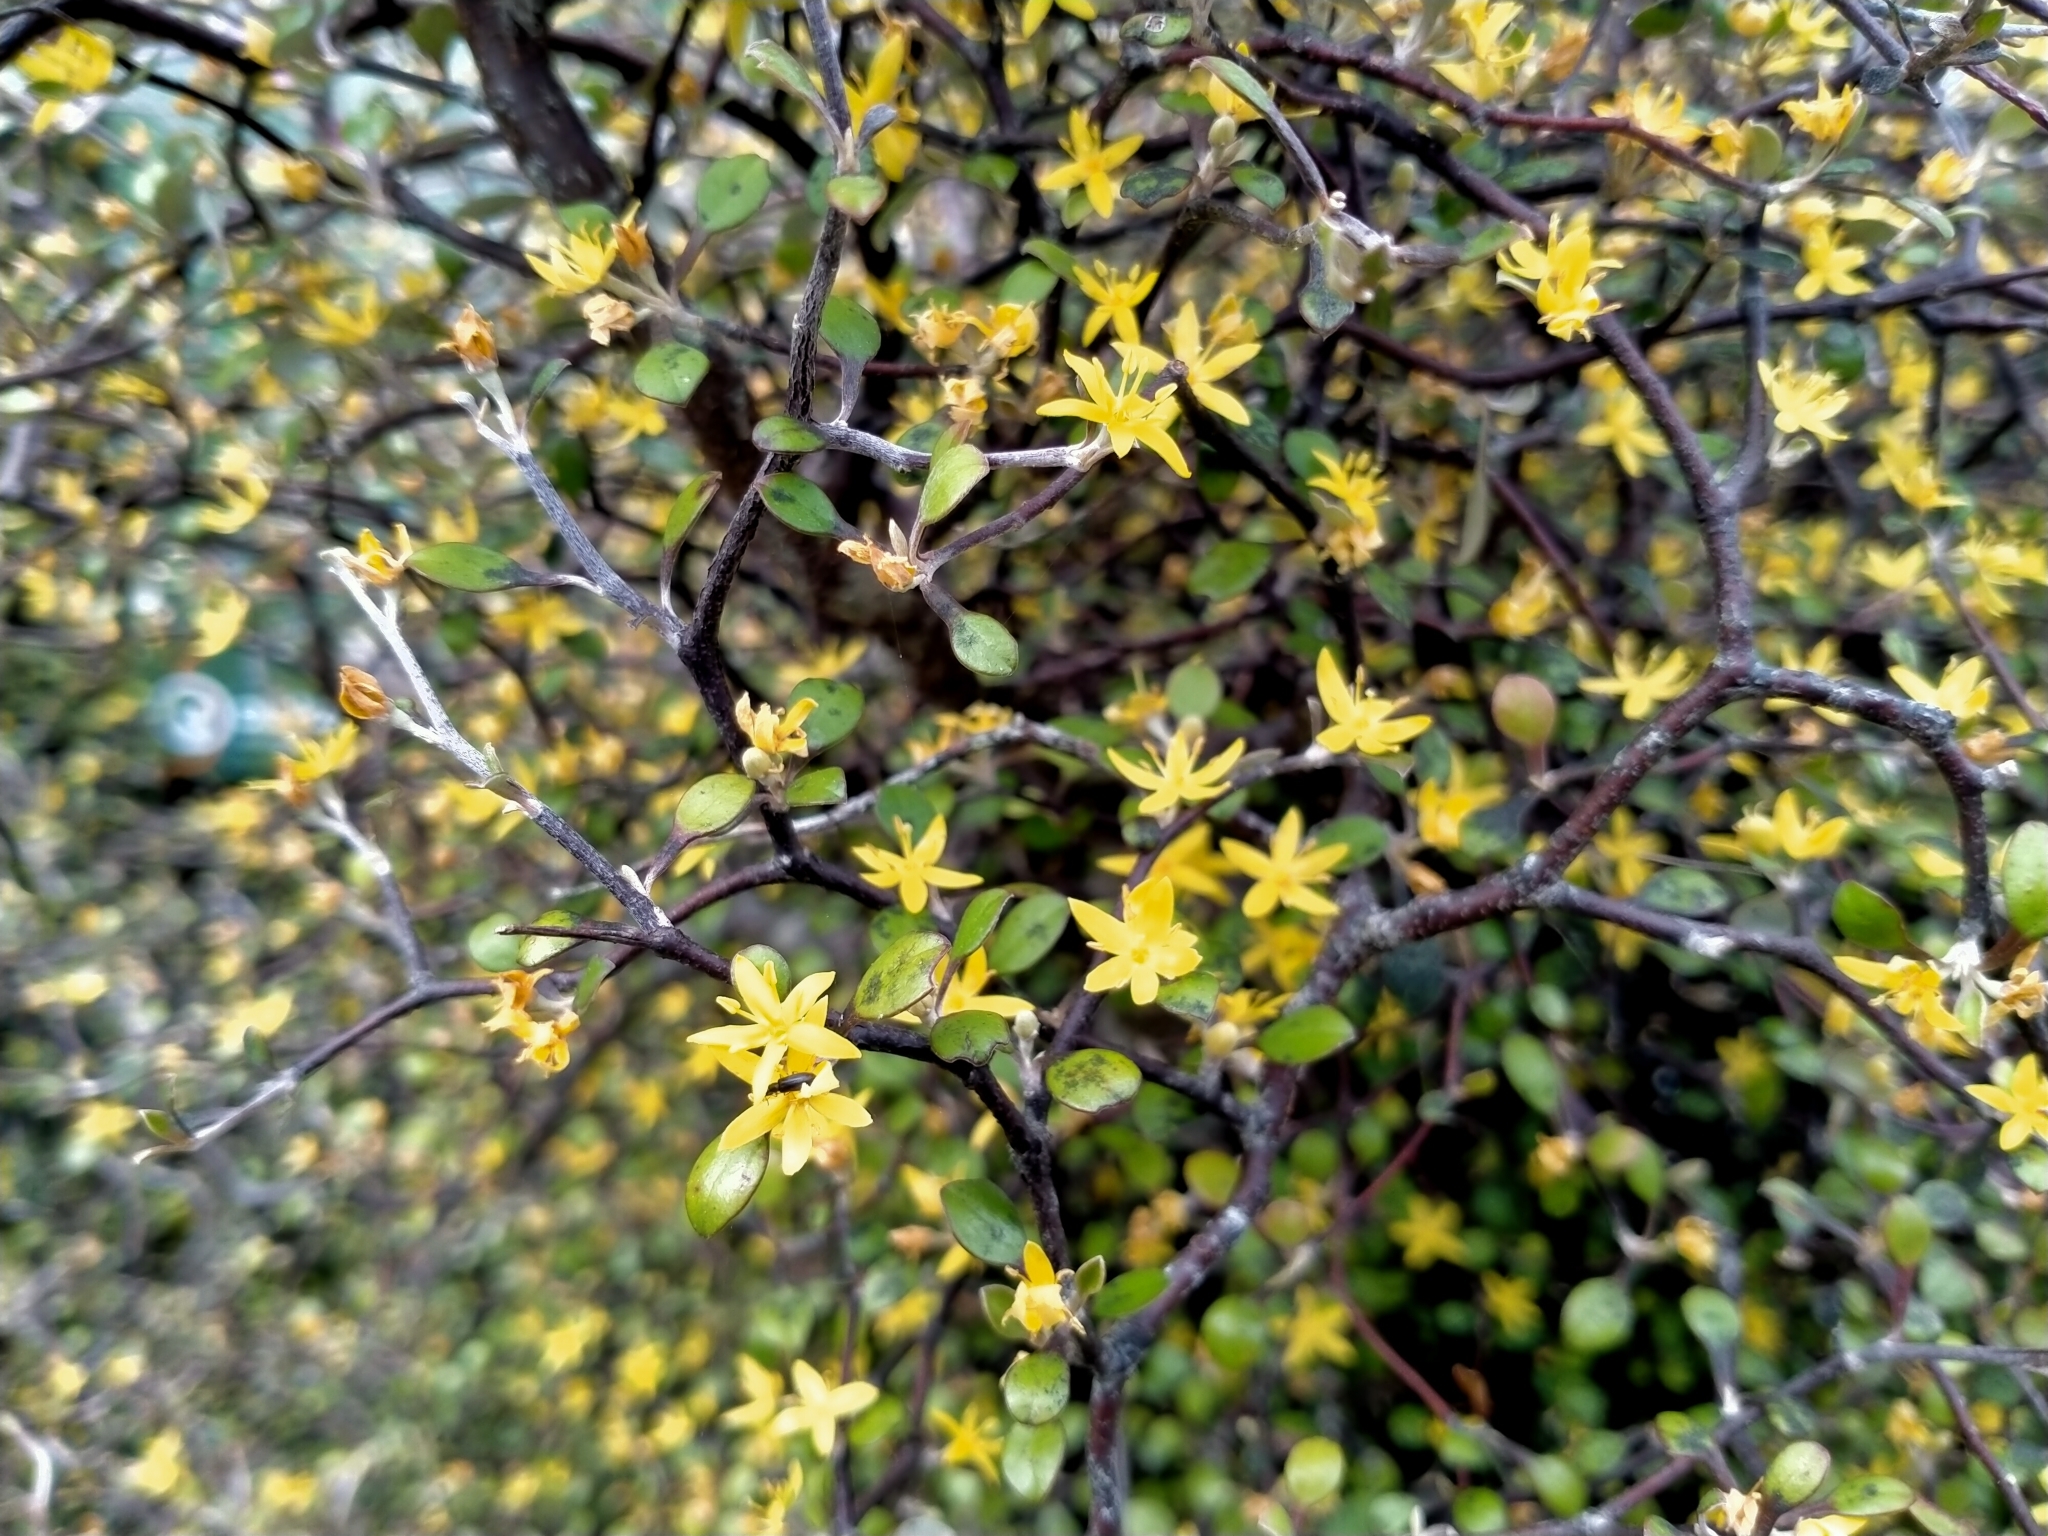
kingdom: Plantae
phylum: Tracheophyta
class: Magnoliopsida
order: Asterales
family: Argophyllaceae
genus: Corokia
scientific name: Corokia cotoneaster
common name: Wire nettingbush
